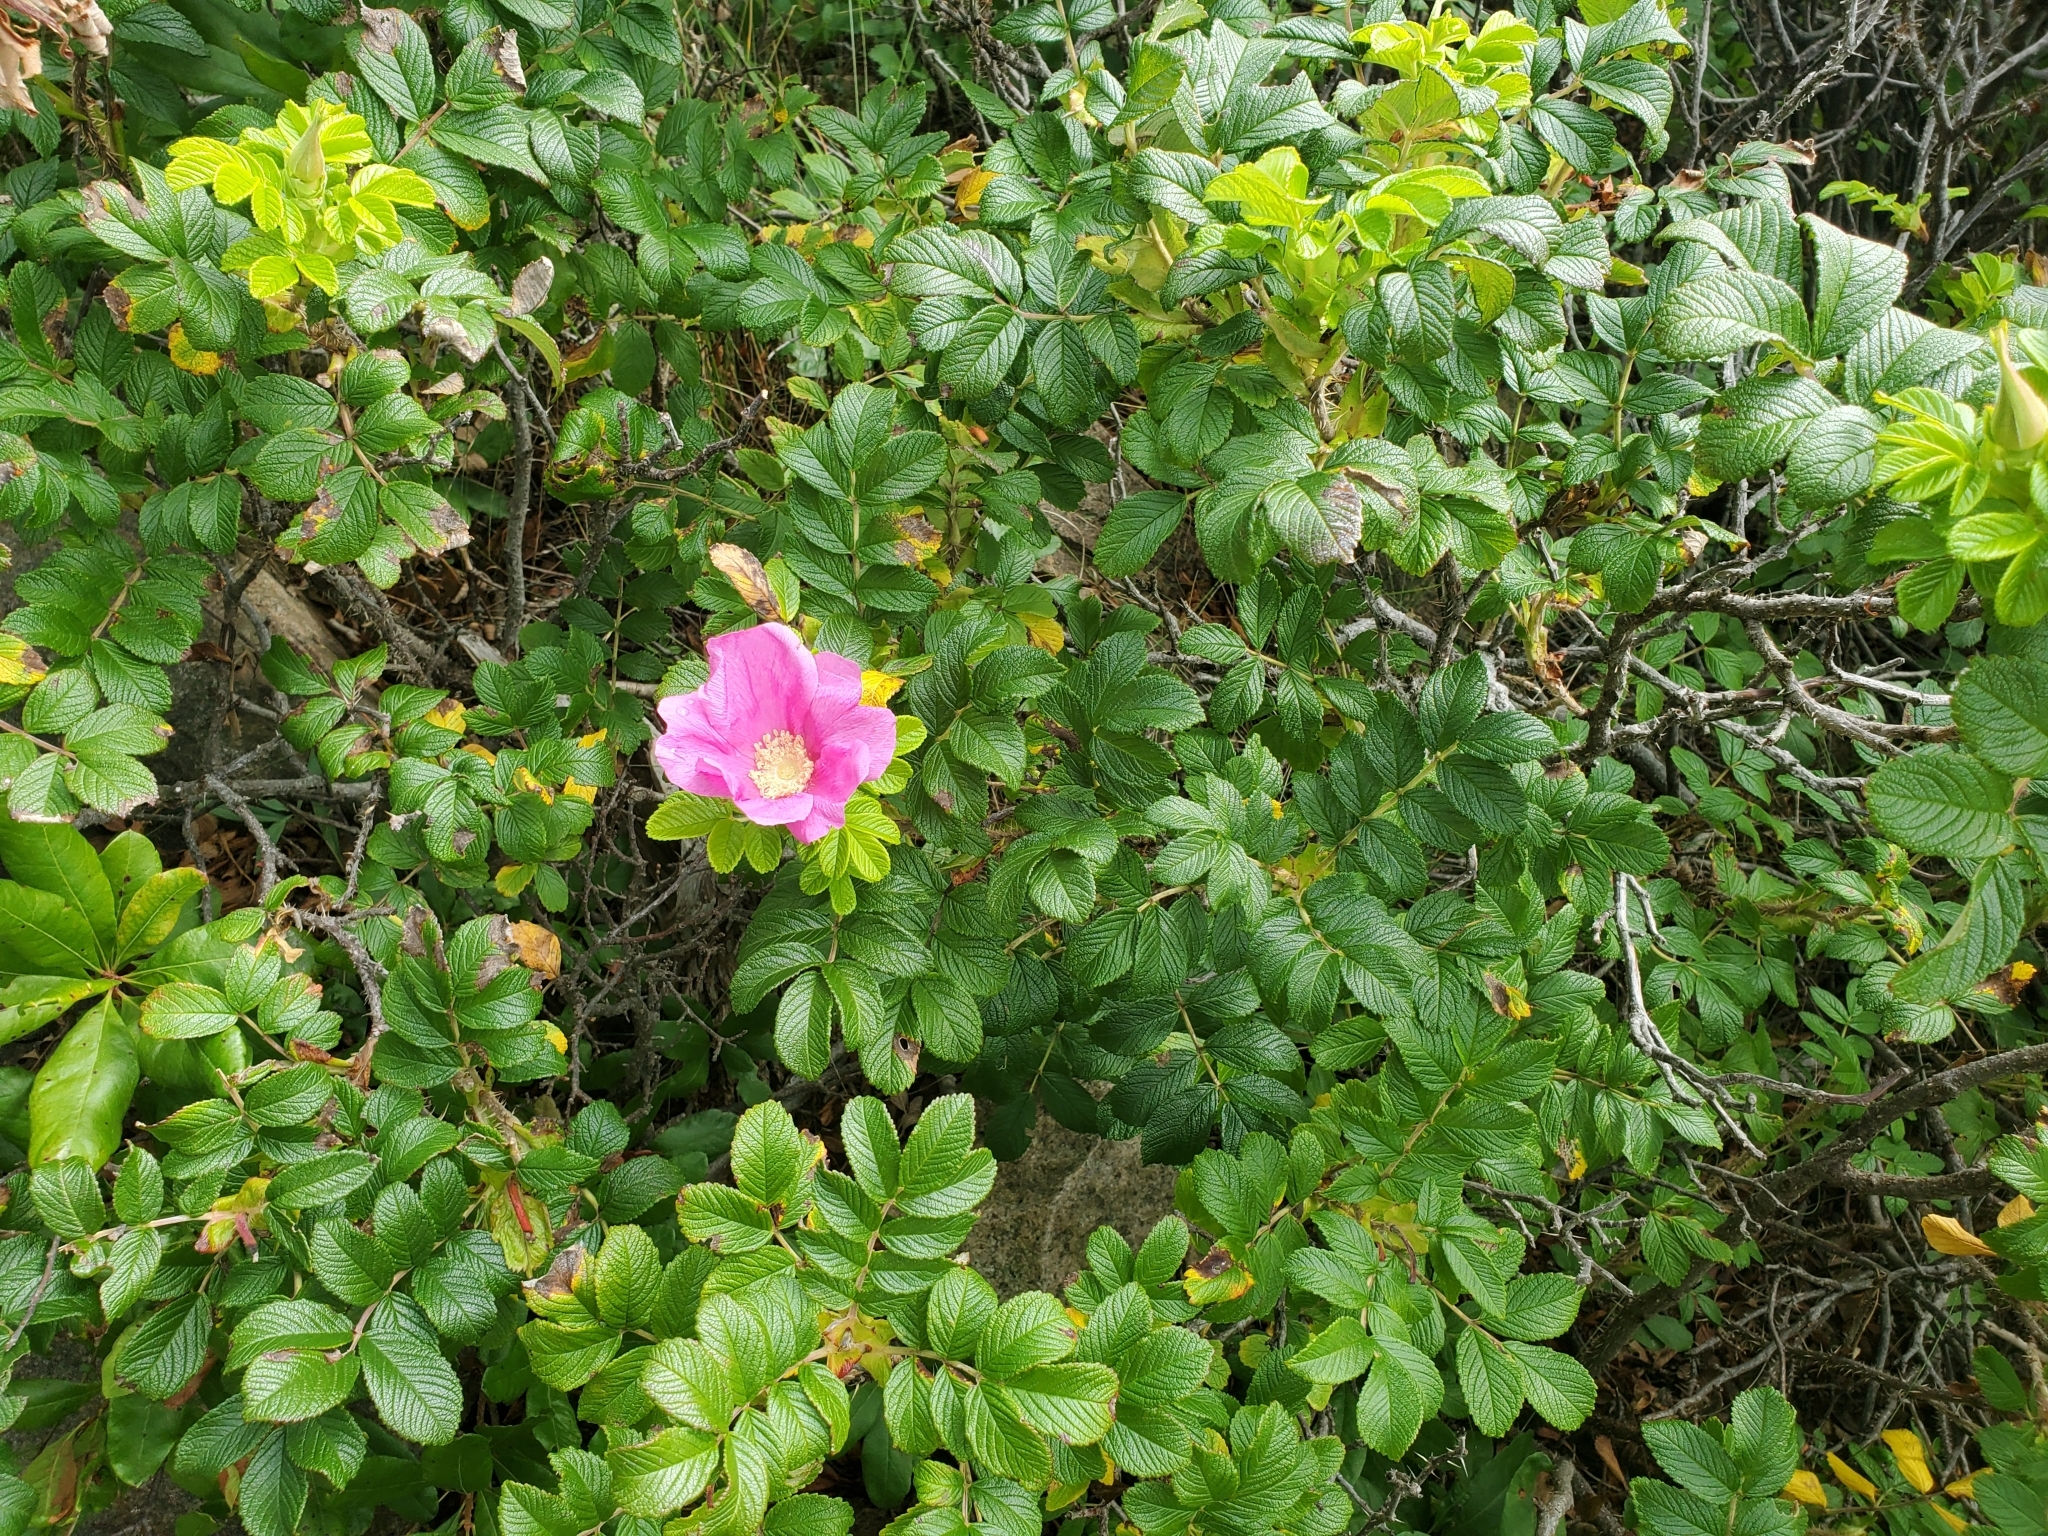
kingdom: Plantae
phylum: Tracheophyta
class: Magnoliopsida
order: Rosales
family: Rosaceae
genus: Rosa
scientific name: Rosa rugosa
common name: Japanese rose
